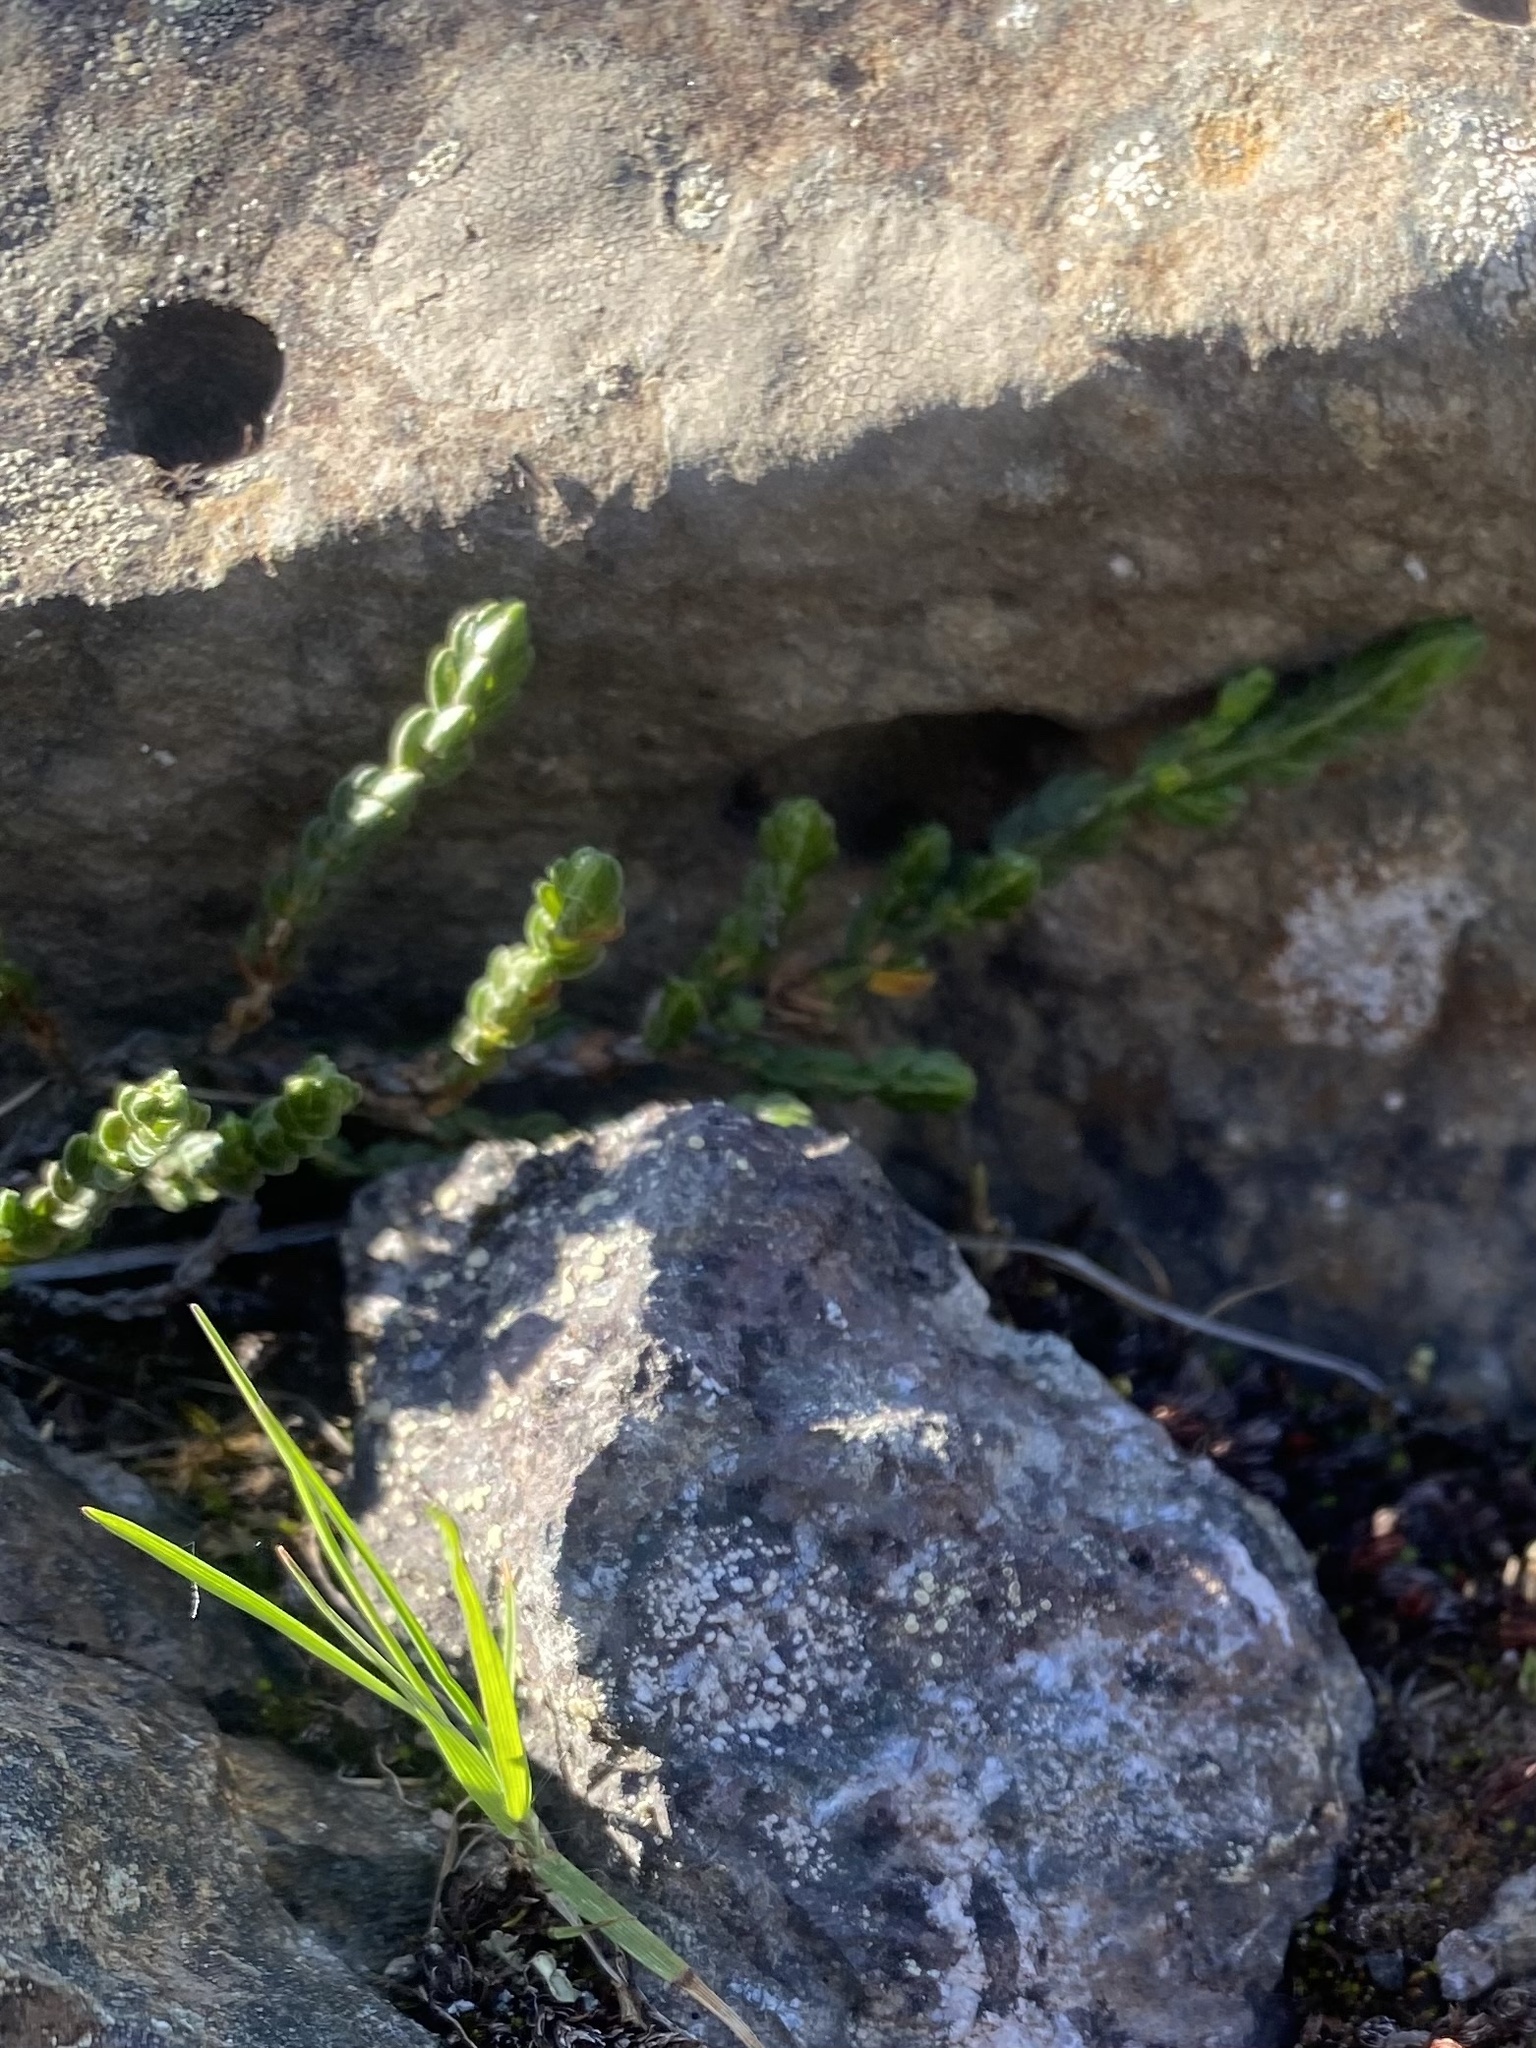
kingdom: Plantae
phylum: Tracheophyta
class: Magnoliopsida
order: Ericales
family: Ericaceae
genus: Cassiope
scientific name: Cassiope tetragona
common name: Arctic bell heather
